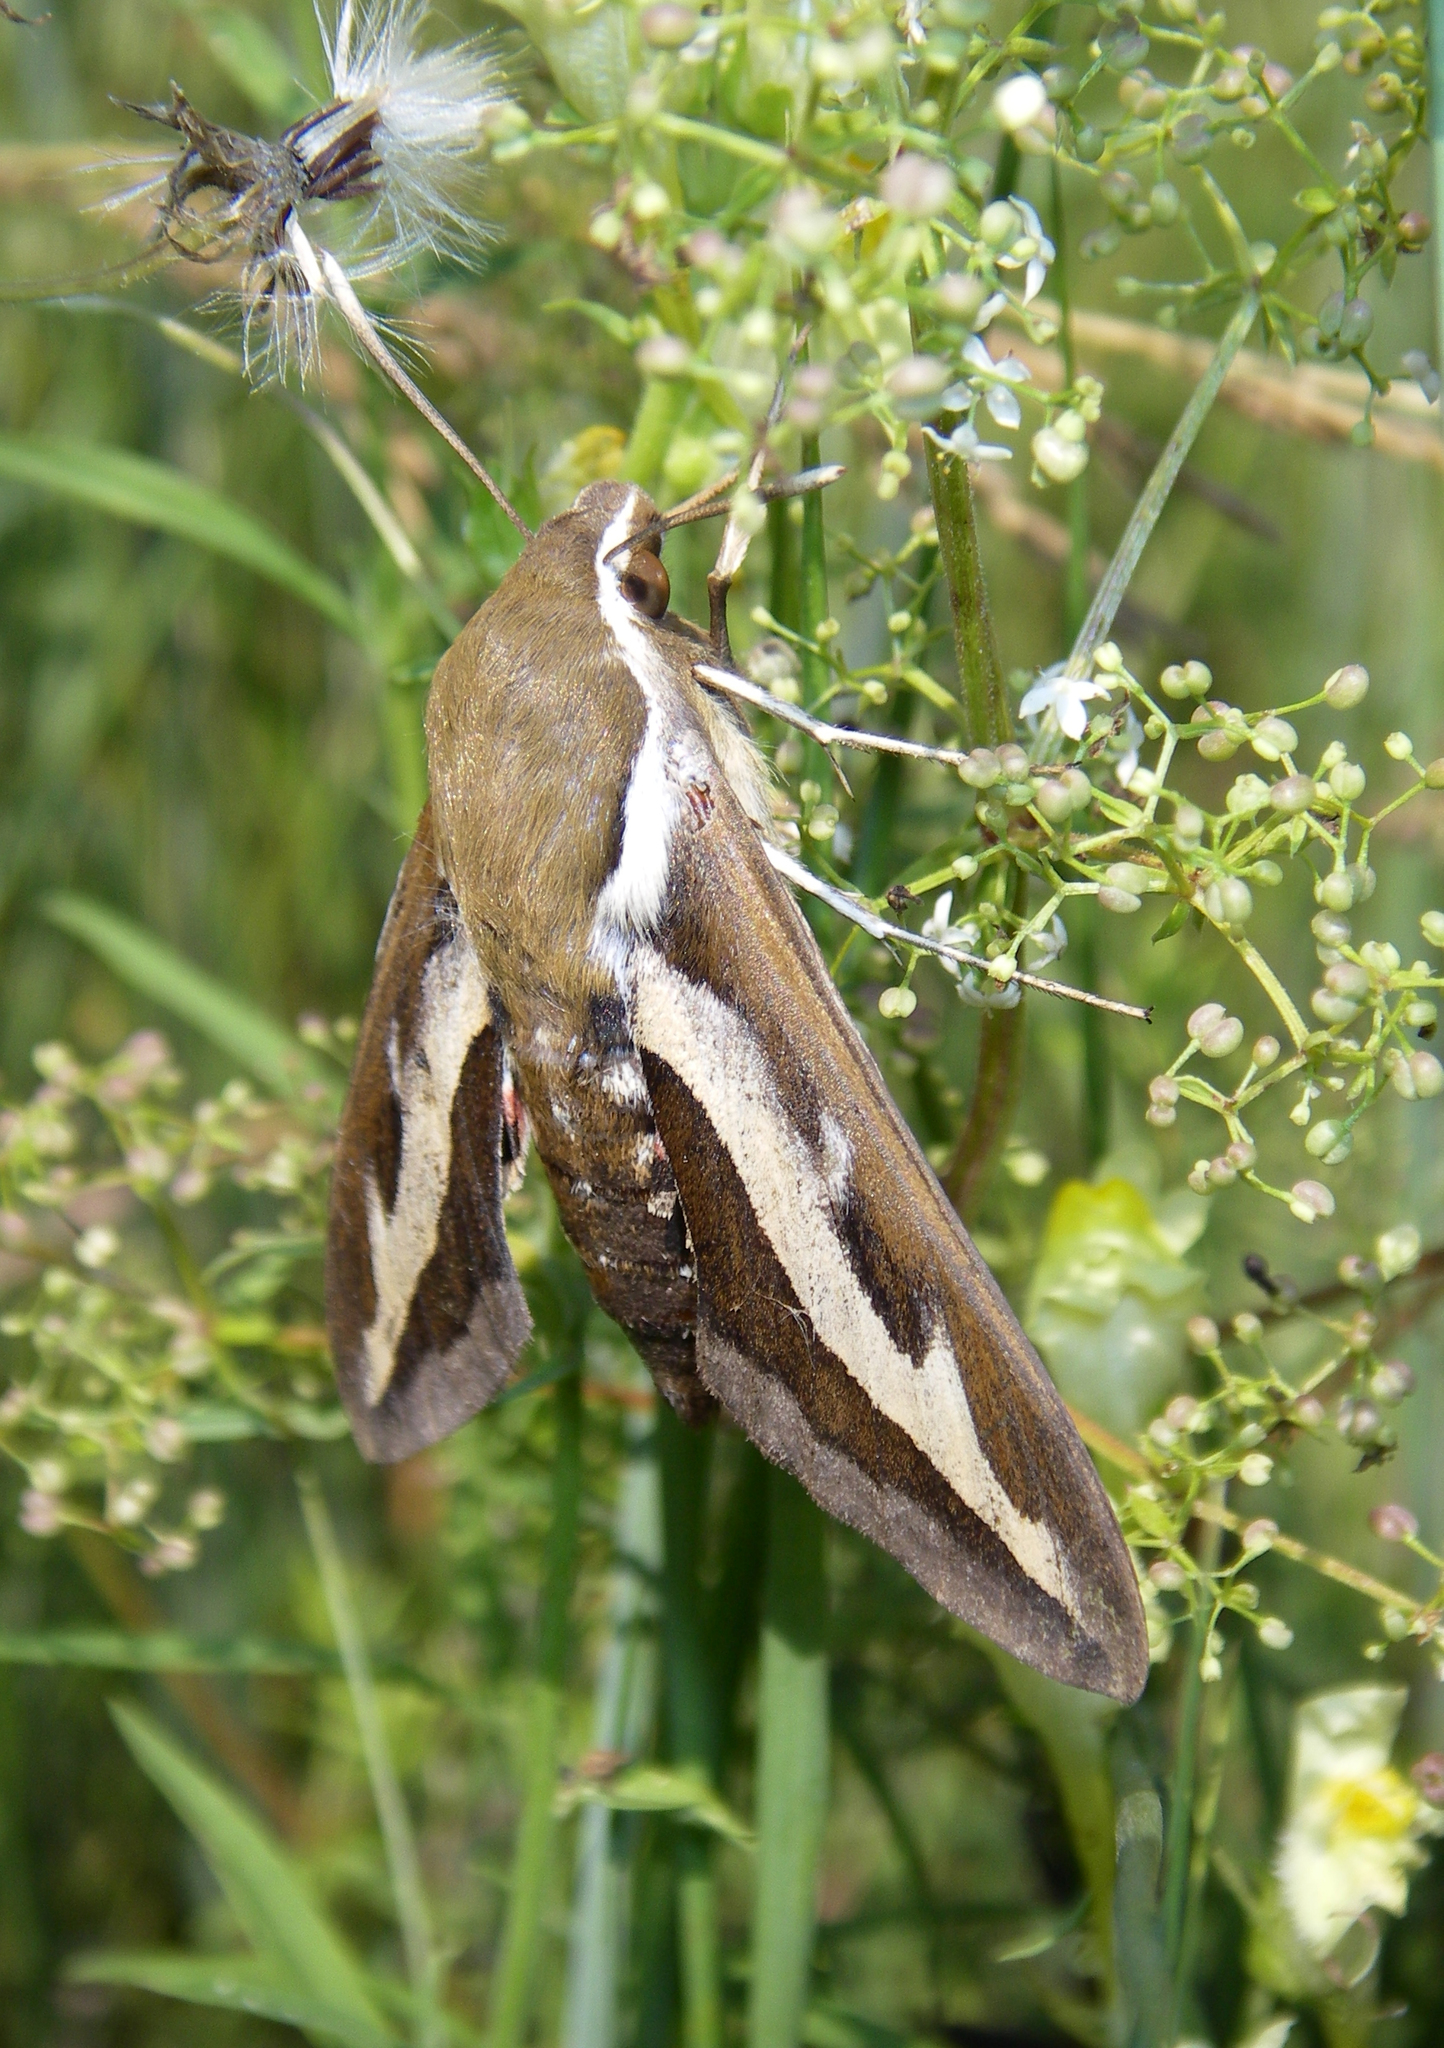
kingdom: Animalia
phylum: Arthropoda
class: Insecta
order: Lepidoptera
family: Sphingidae
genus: Hyles
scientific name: Hyles gallii
